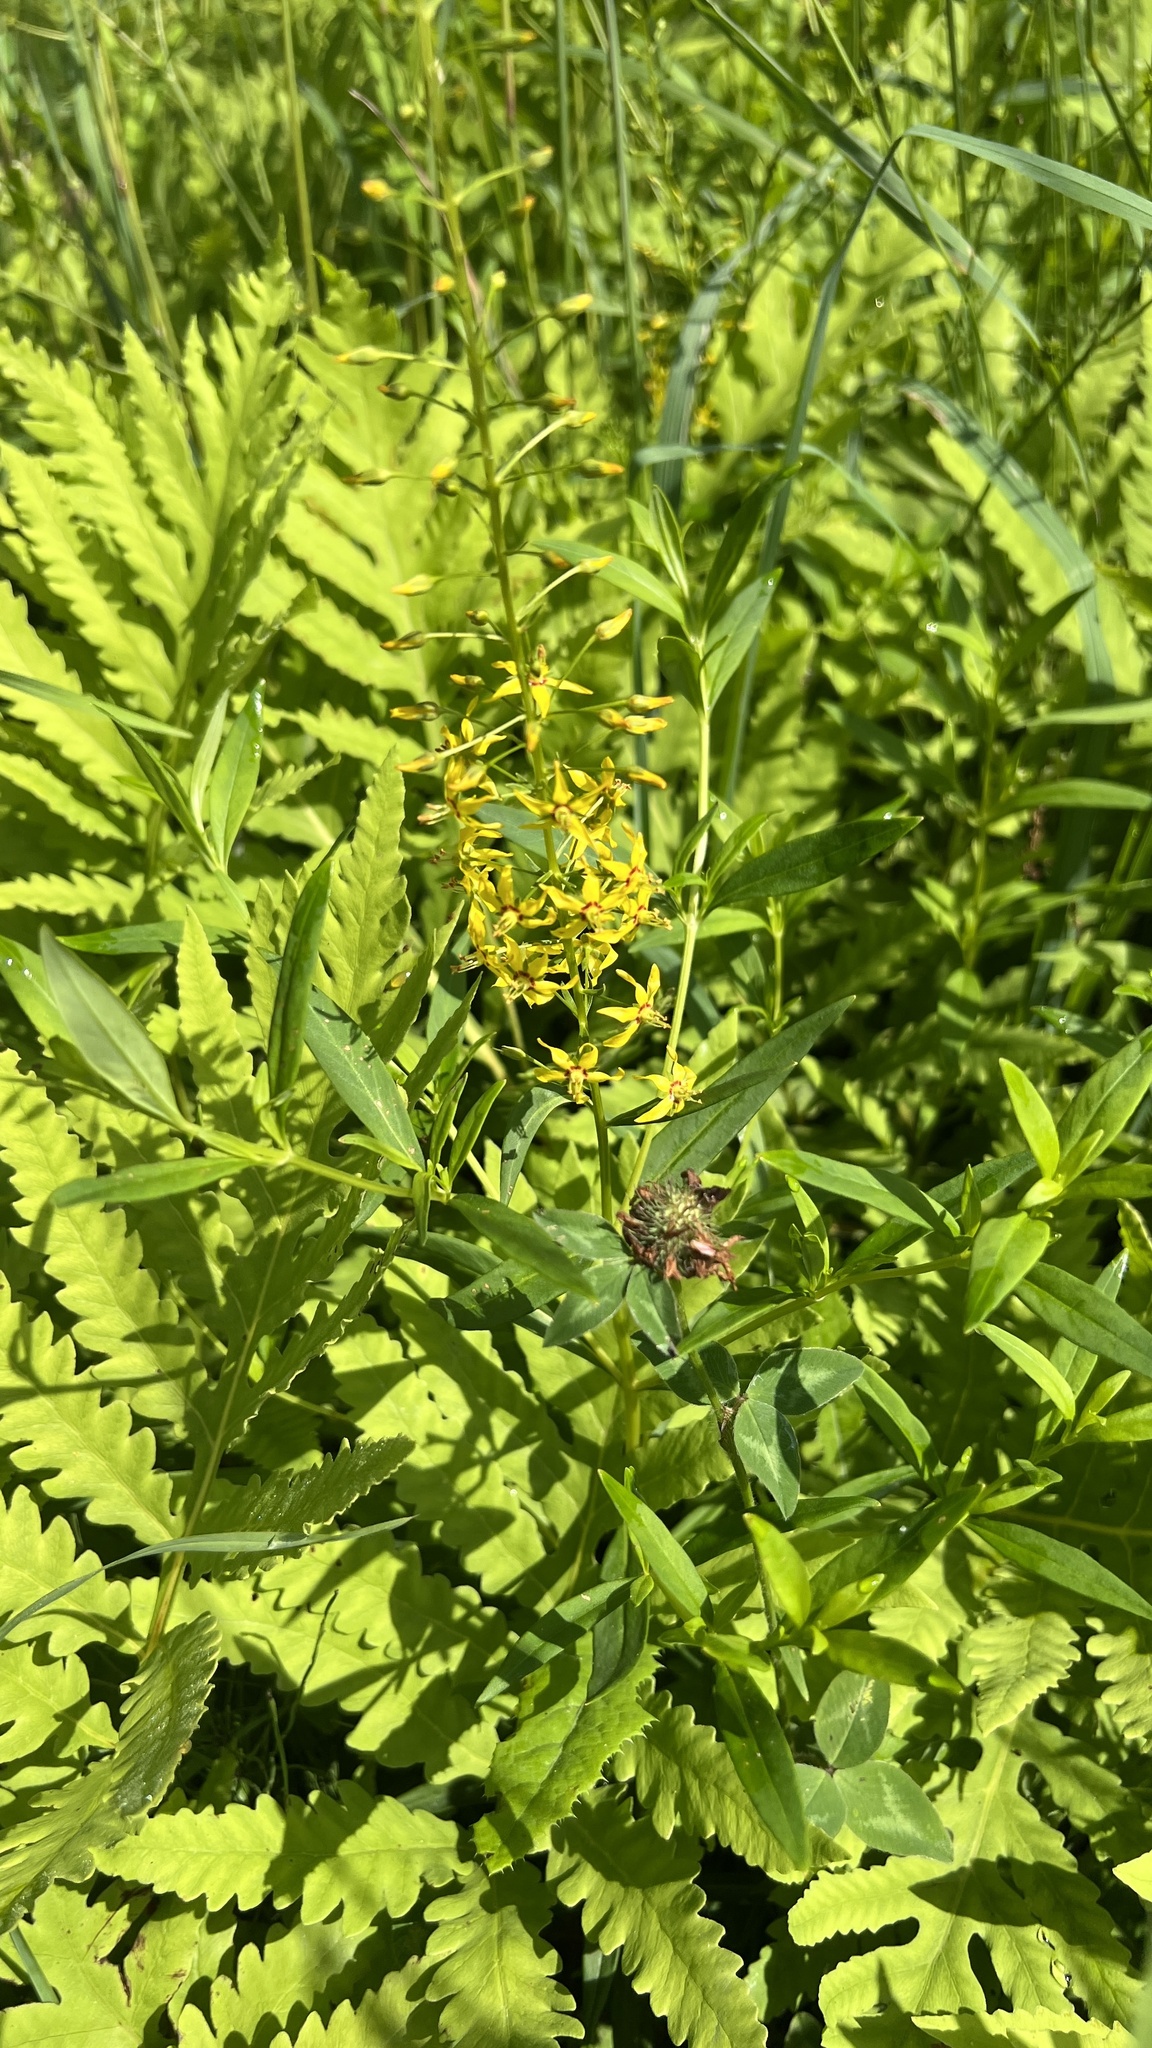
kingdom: Plantae
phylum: Tracheophyta
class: Magnoliopsida
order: Ericales
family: Primulaceae
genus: Lysimachia
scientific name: Lysimachia terrestris
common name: Lake loosestrife
